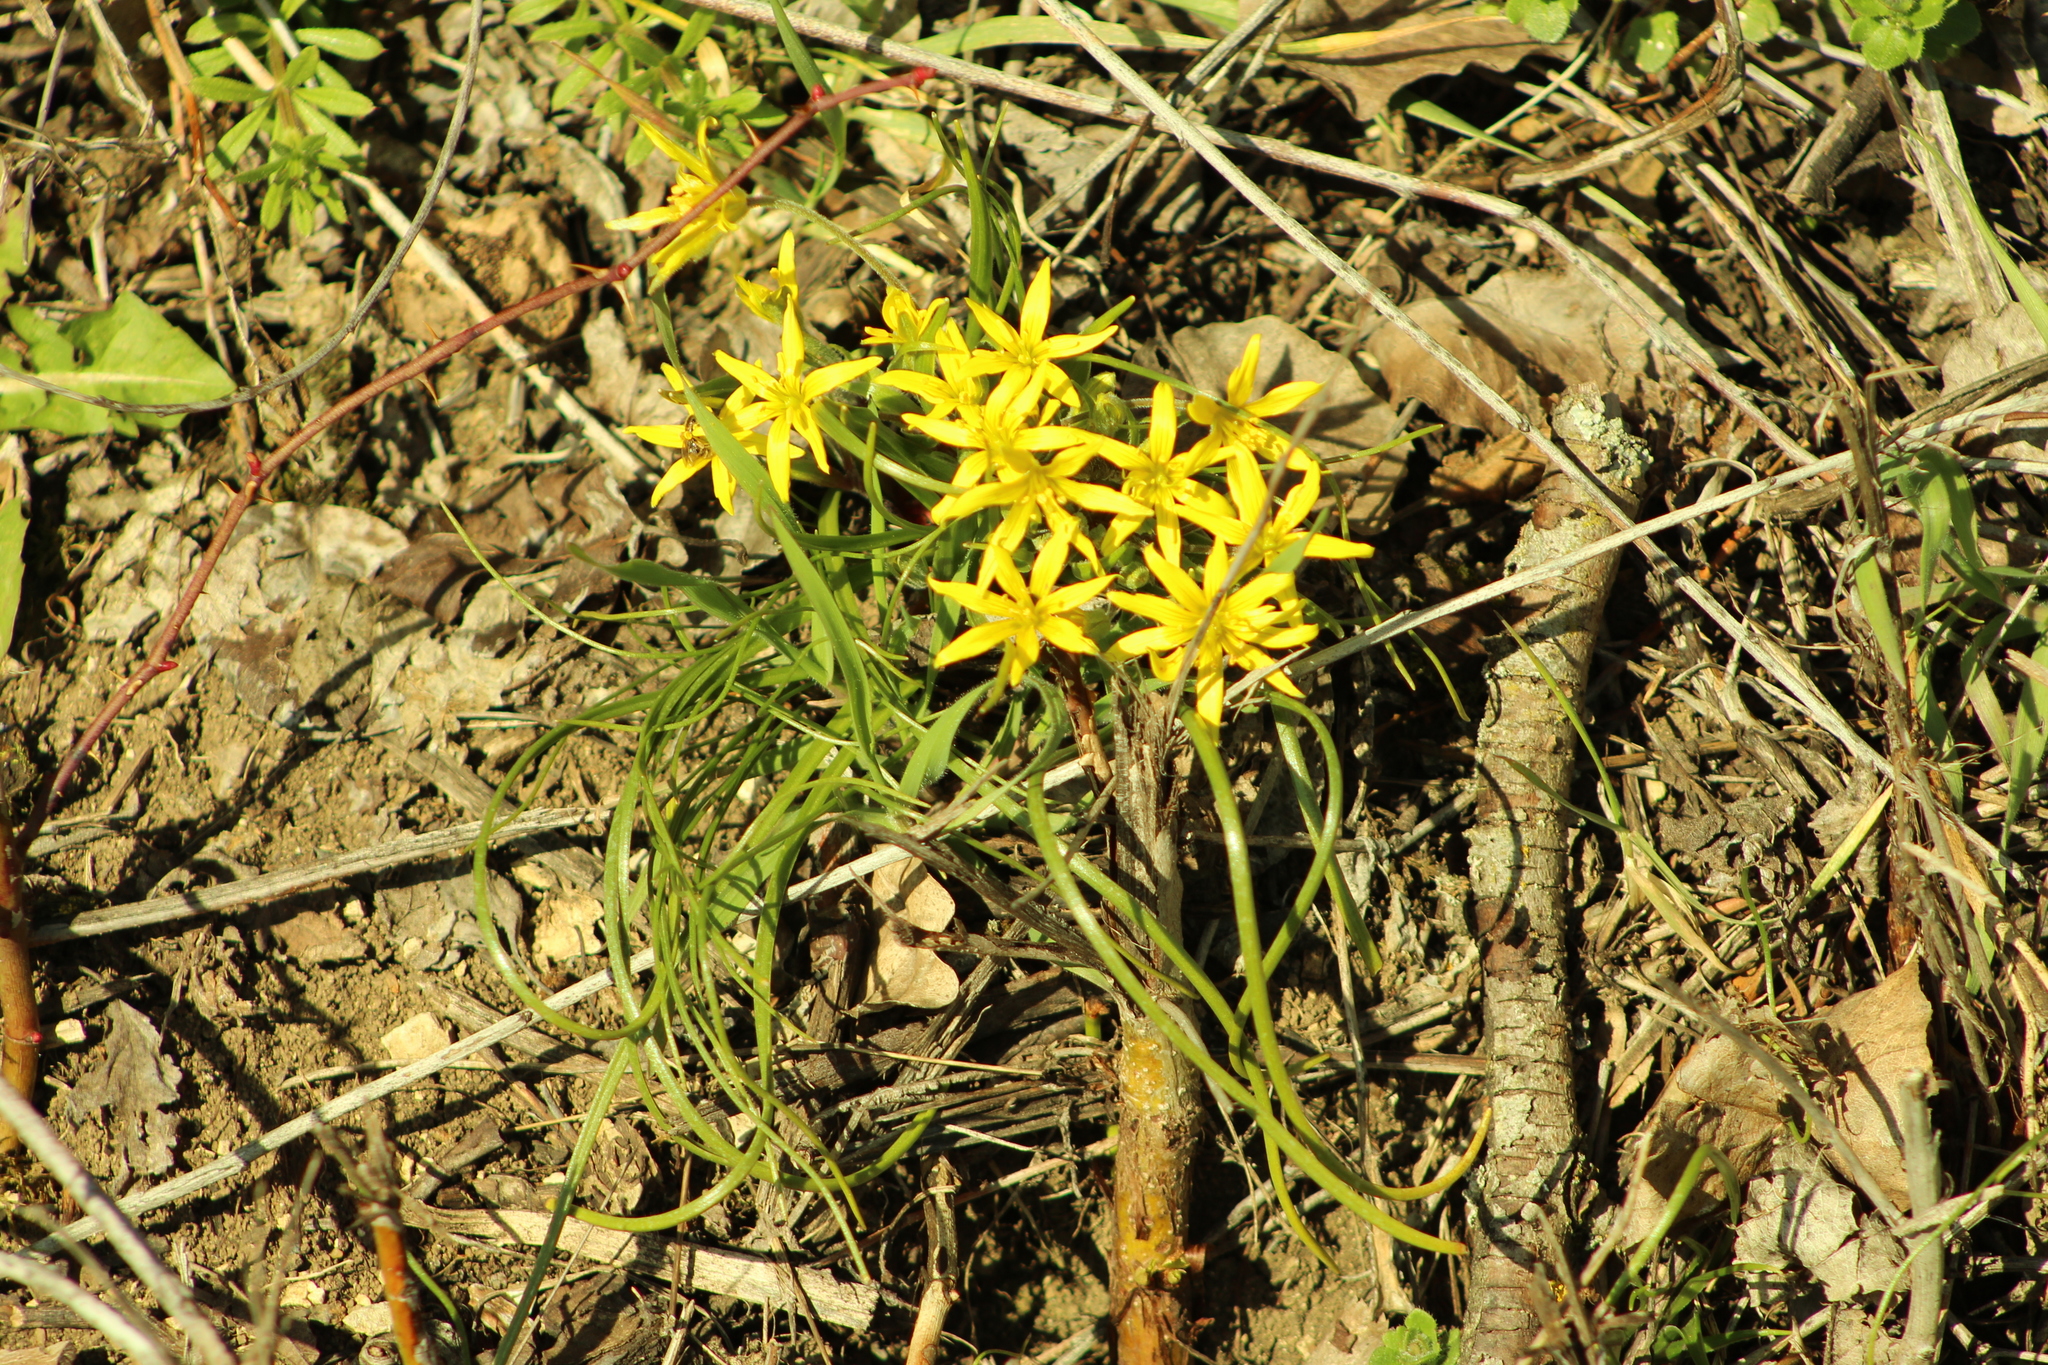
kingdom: Plantae
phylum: Tracheophyta
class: Liliopsida
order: Liliales
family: Liliaceae
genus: Gagea
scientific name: Gagea villosa
